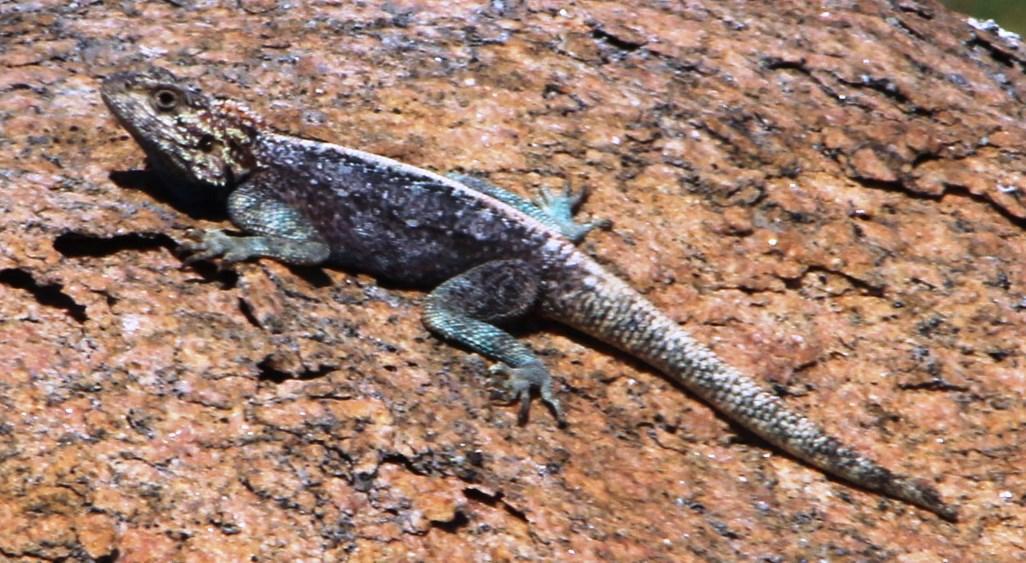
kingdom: Animalia
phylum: Chordata
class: Squamata
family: Agamidae
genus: Agama
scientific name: Agama atra
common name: Southern african rock agama
